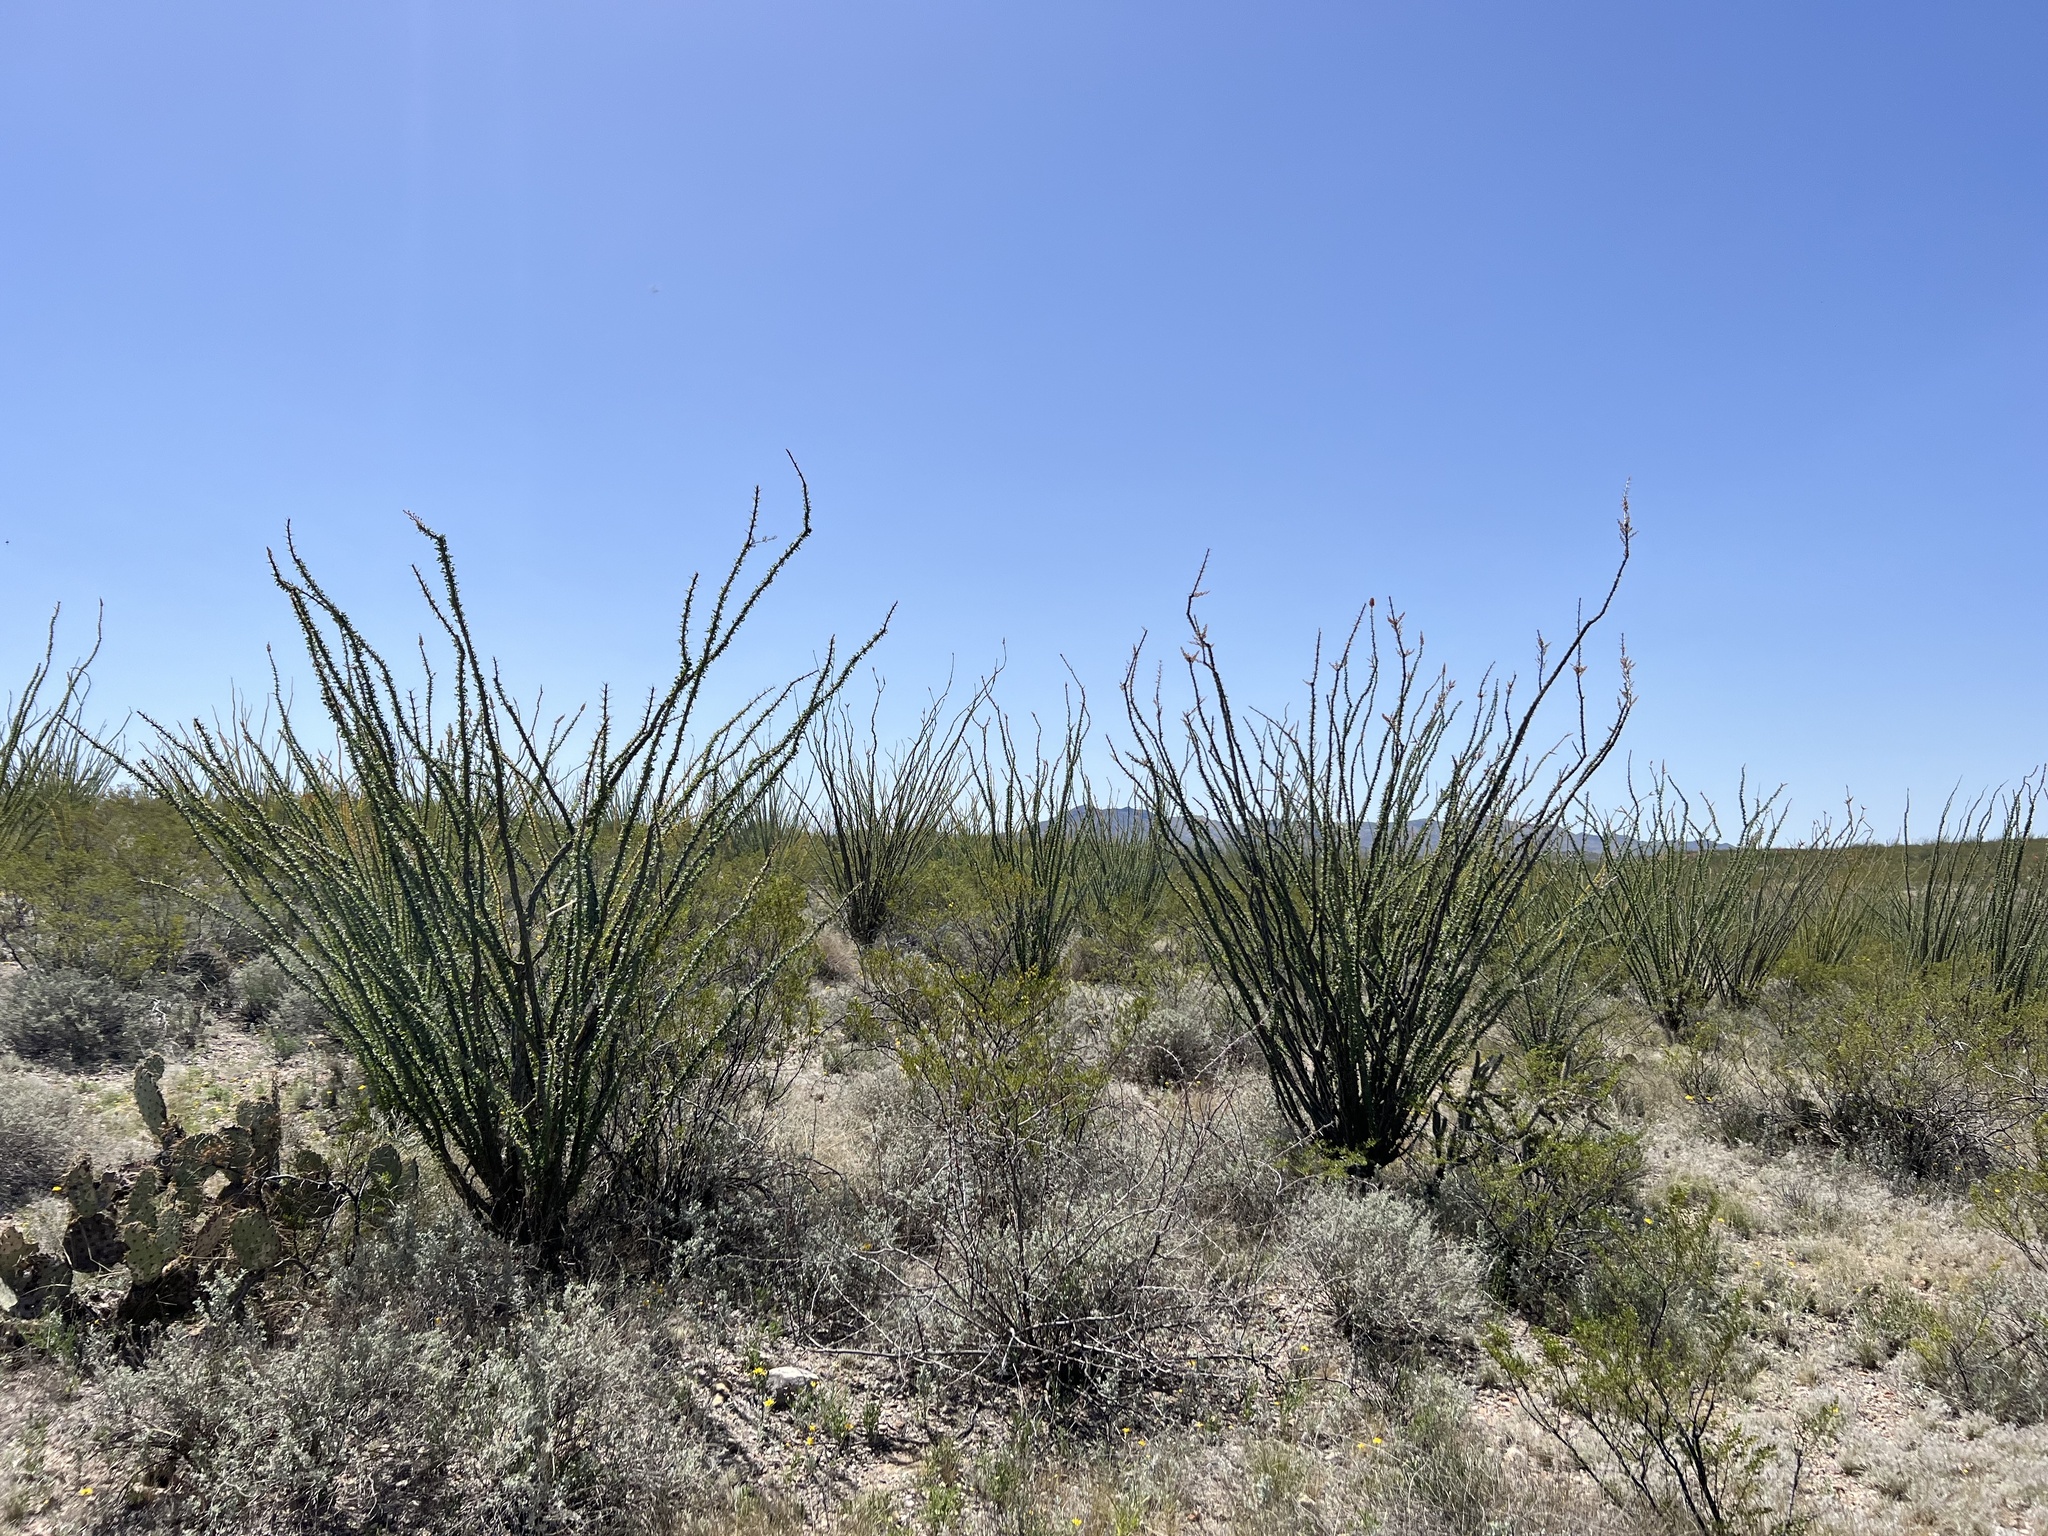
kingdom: Plantae
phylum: Tracheophyta
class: Magnoliopsida
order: Ericales
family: Fouquieriaceae
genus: Fouquieria
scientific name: Fouquieria splendens
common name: Vine-cactus
